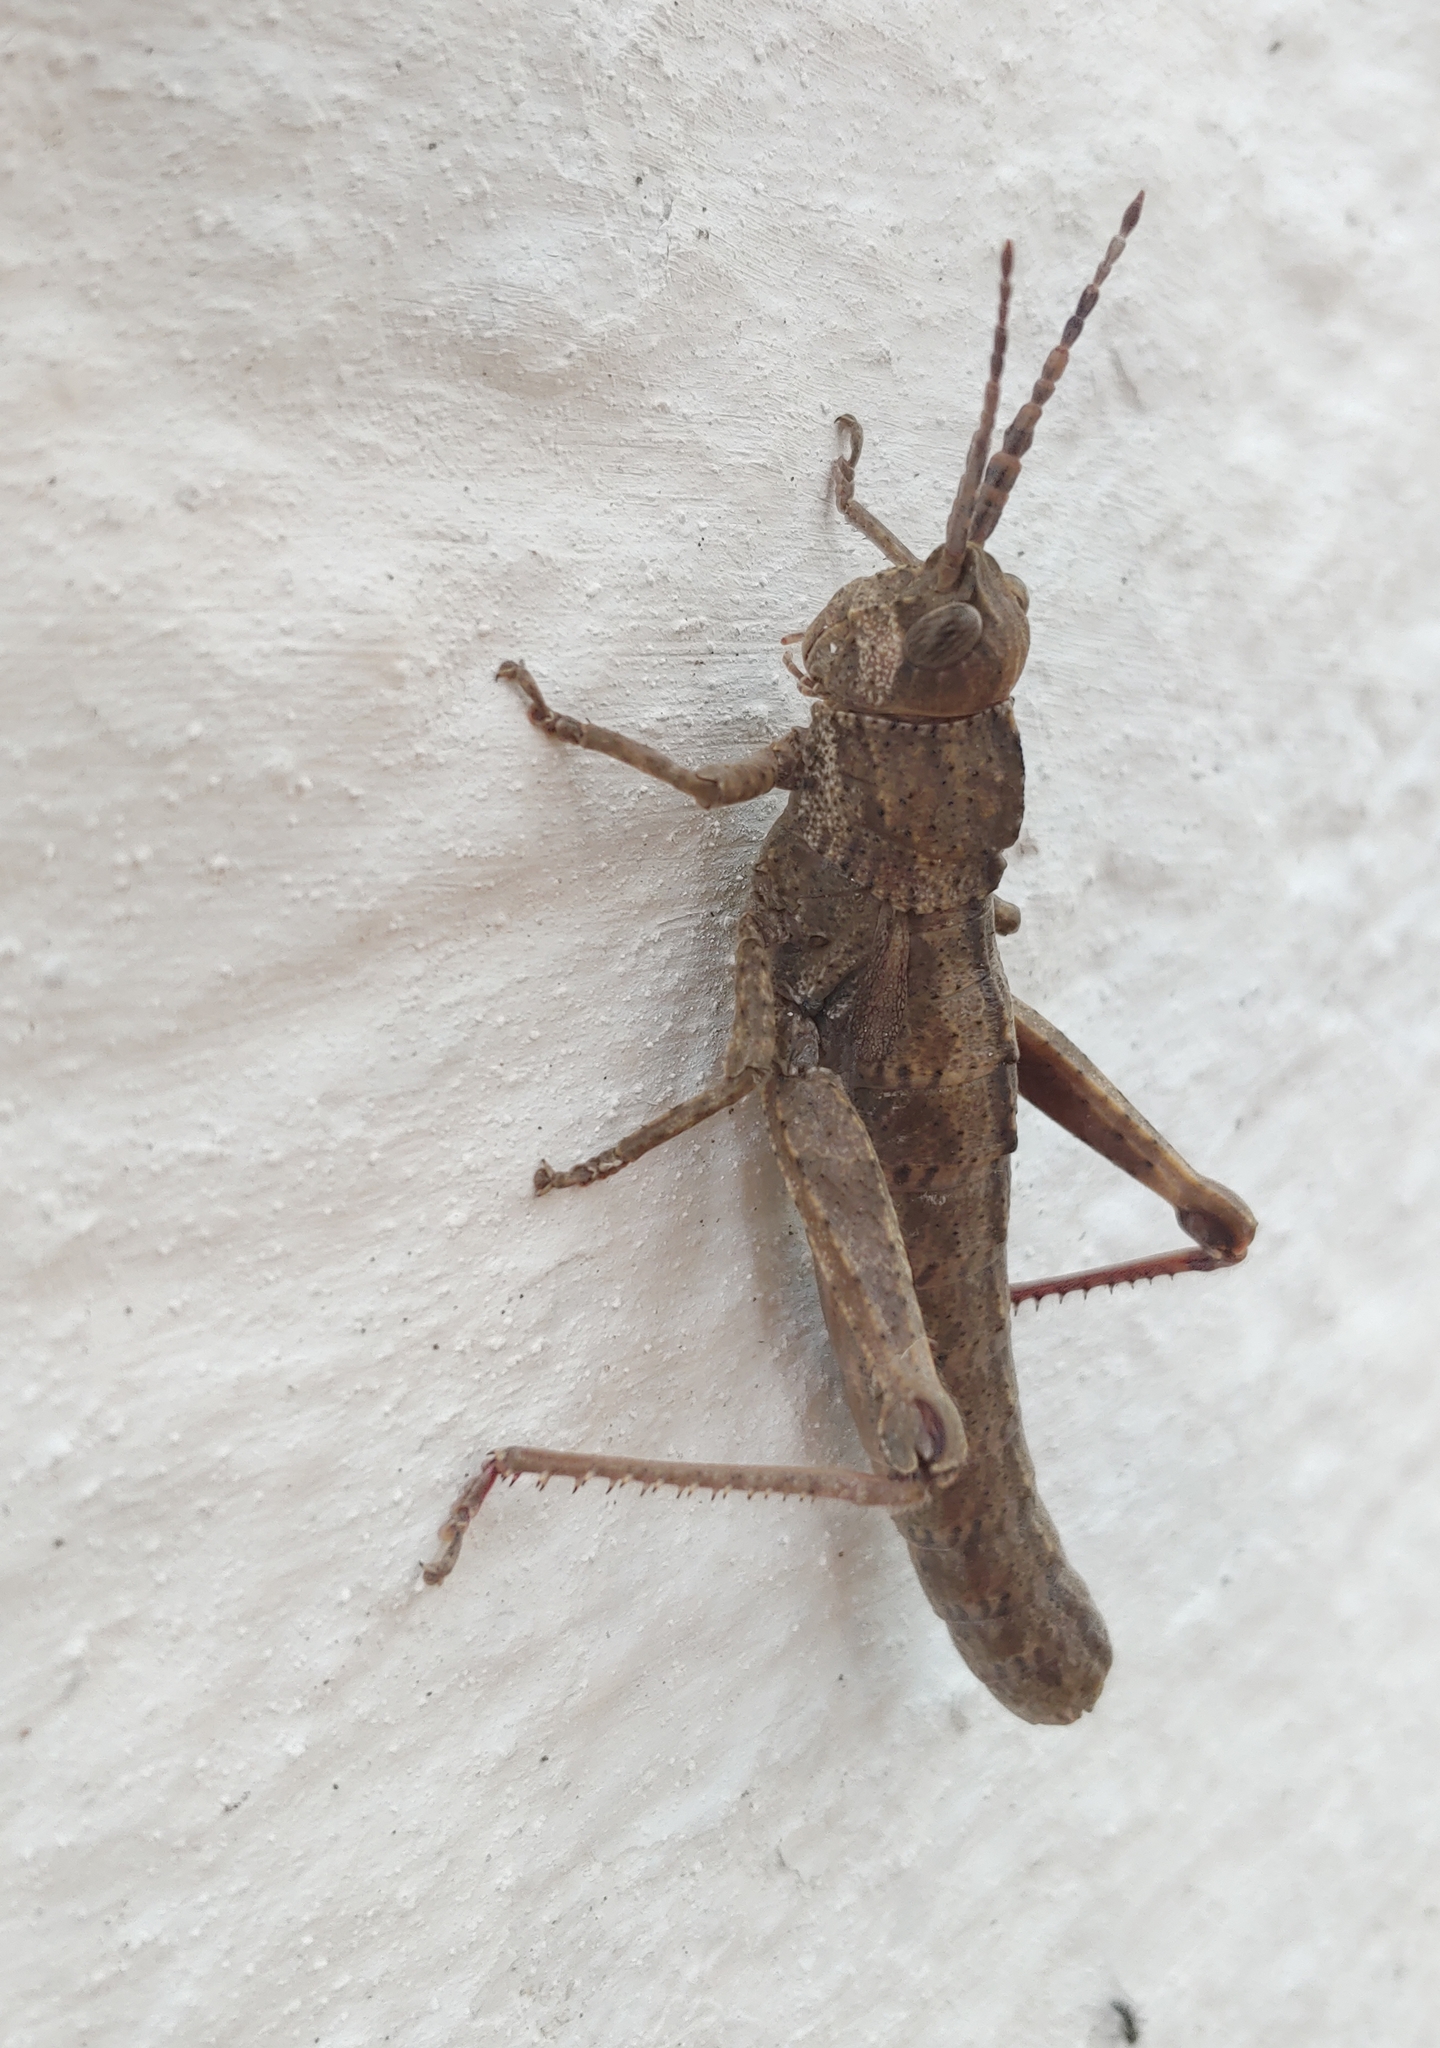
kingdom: Animalia
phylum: Arthropoda
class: Insecta
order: Orthoptera
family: Pamphagidae
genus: Orchamus
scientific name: Orchamus yersini
